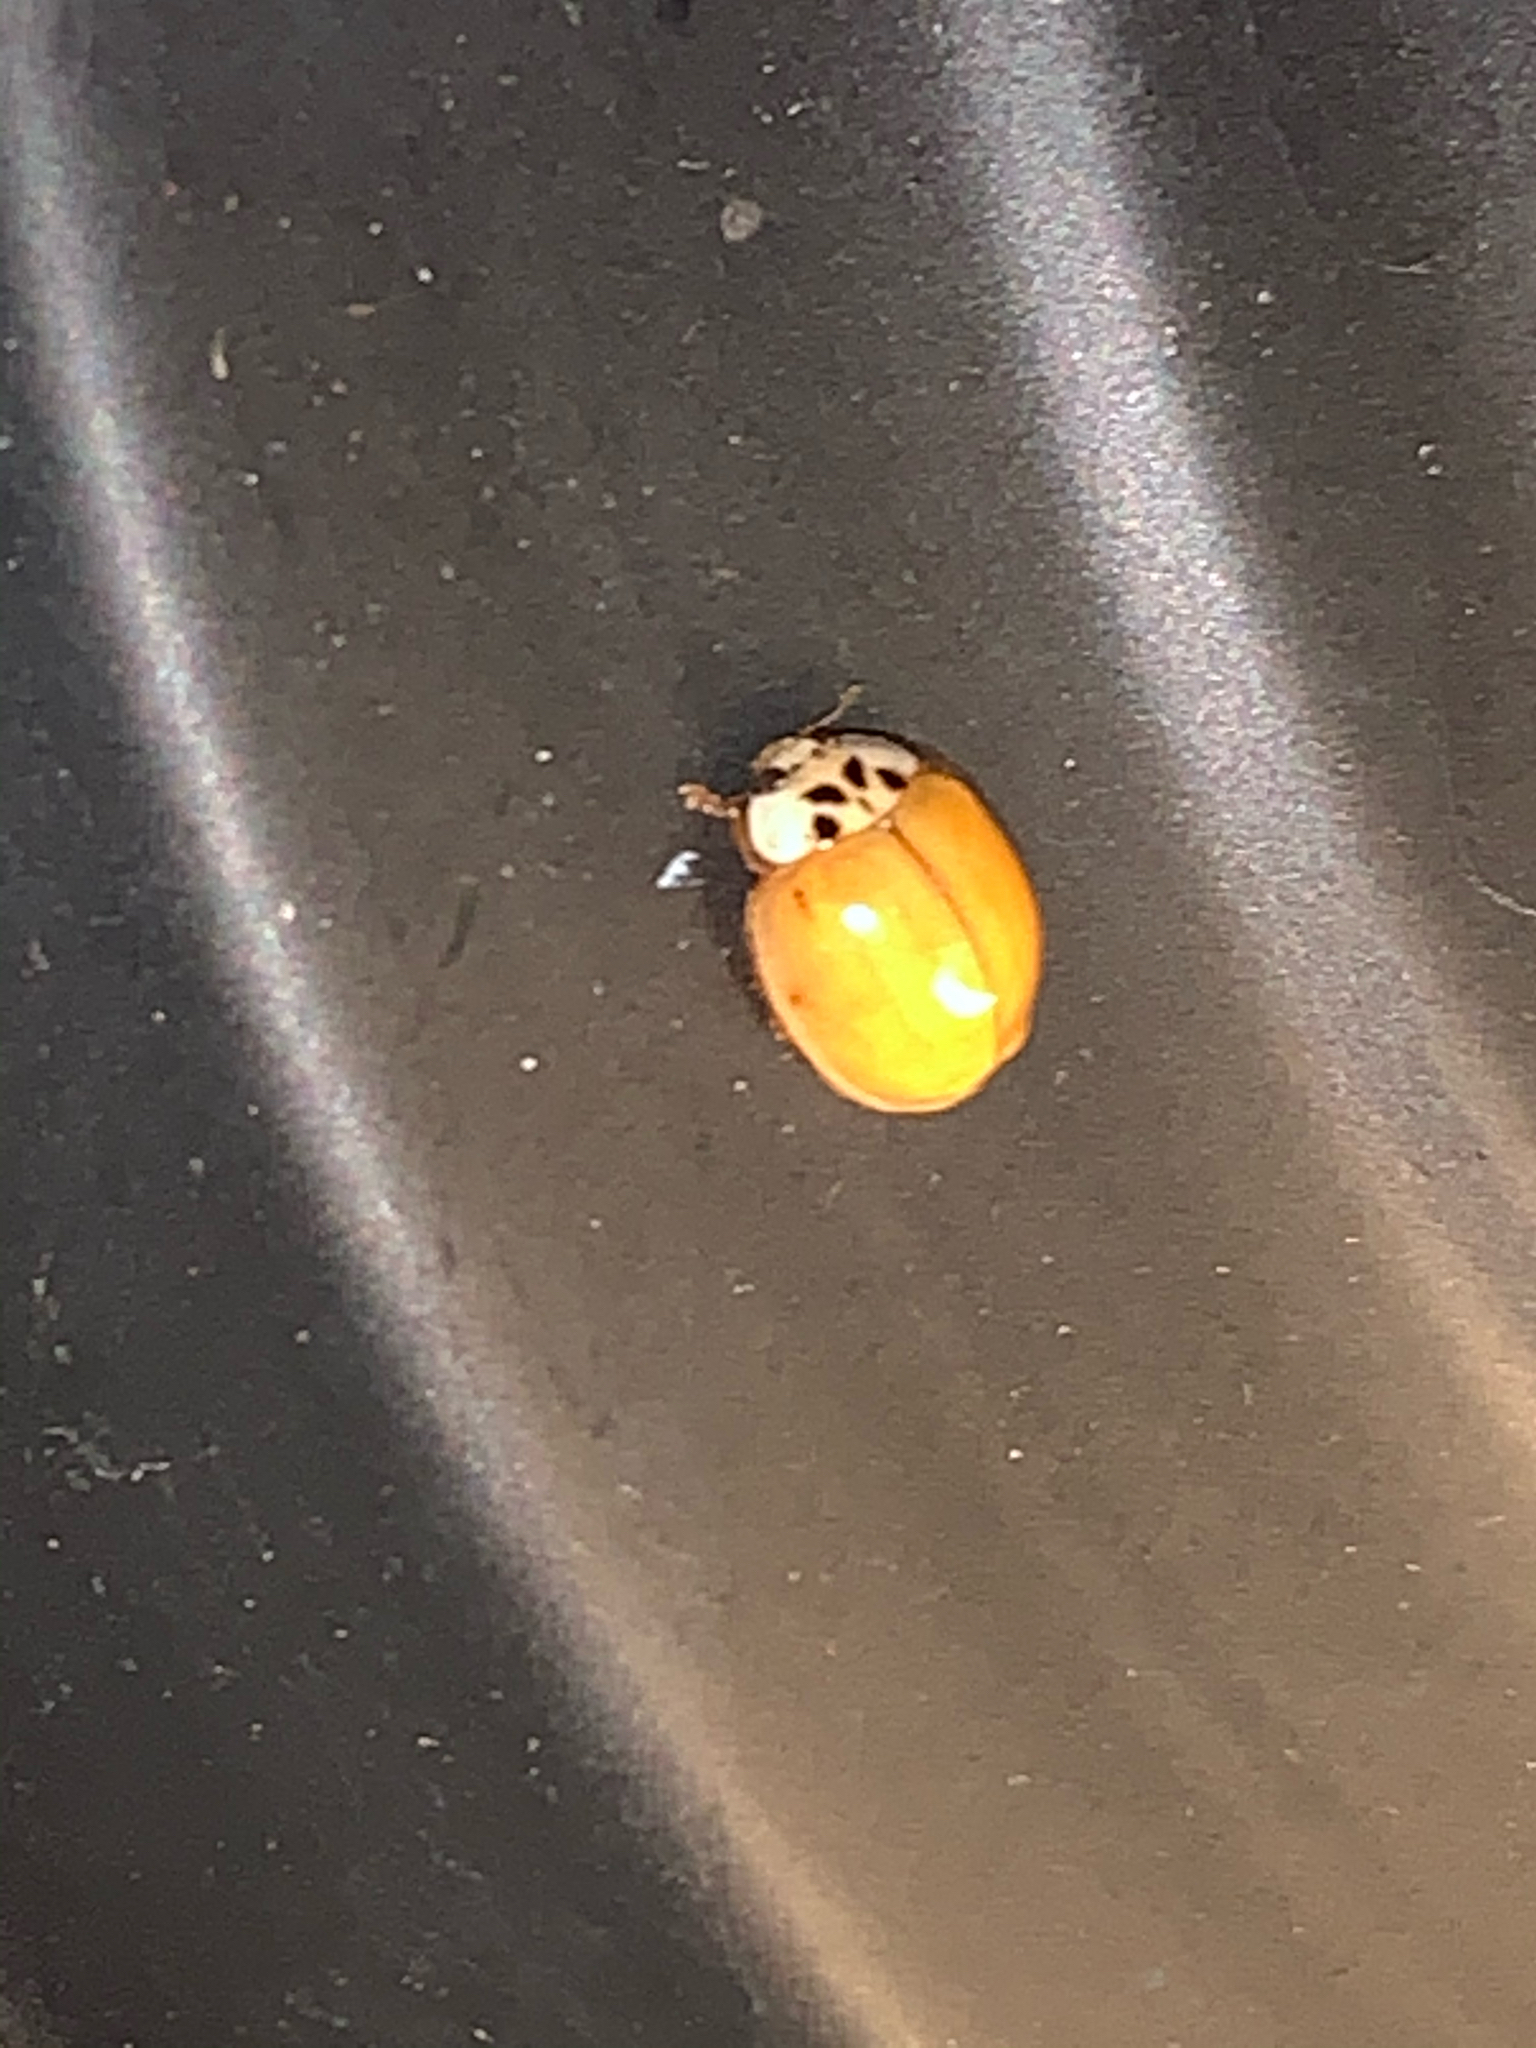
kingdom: Animalia
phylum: Arthropoda
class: Insecta
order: Coleoptera
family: Coccinellidae
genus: Harmonia
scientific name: Harmonia axyridis
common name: Harlequin ladybird
